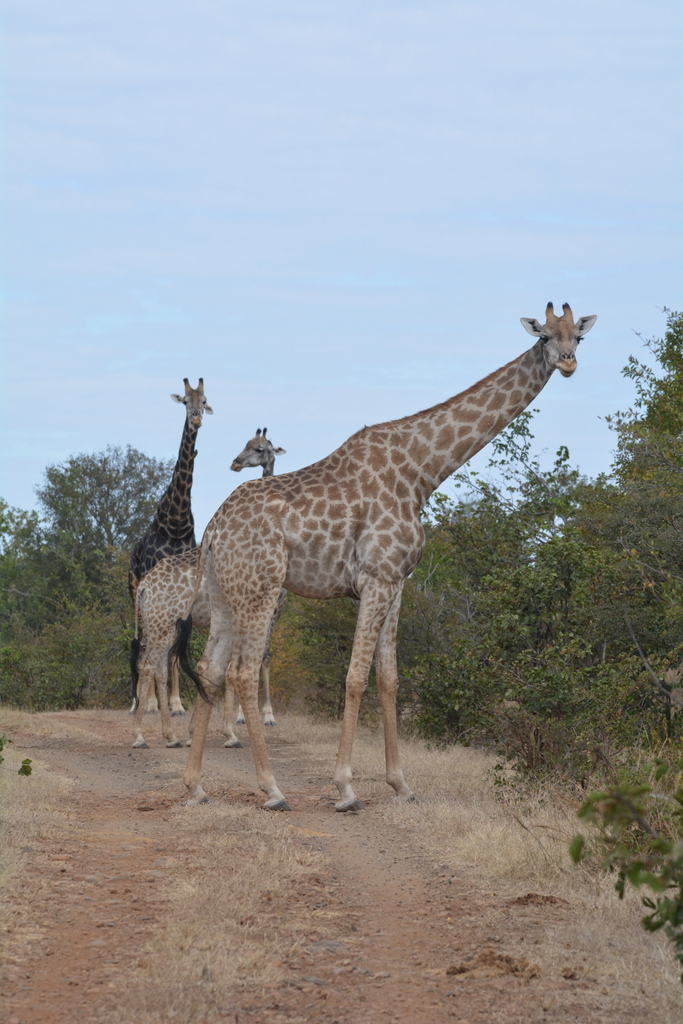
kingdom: Animalia
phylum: Chordata
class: Mammalia
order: Artiodactyla
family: Giraffidae
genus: Giraffa
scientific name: Giraffa giraffa
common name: Southern giraffe
